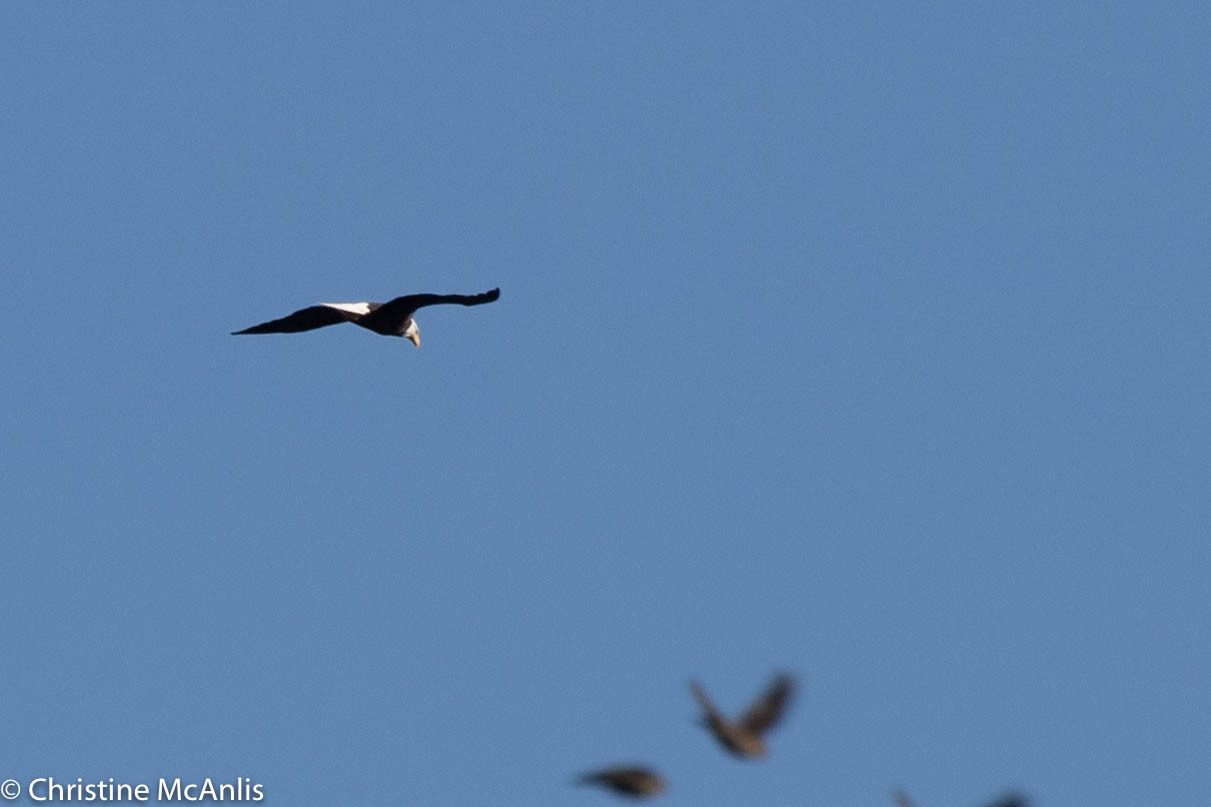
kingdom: Animalia
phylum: Chordata
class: Aves
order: Accipitriformes
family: Accipitridae
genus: Haliaeetus
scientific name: Haliaeetus leucocephalus
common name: Bald eagle
